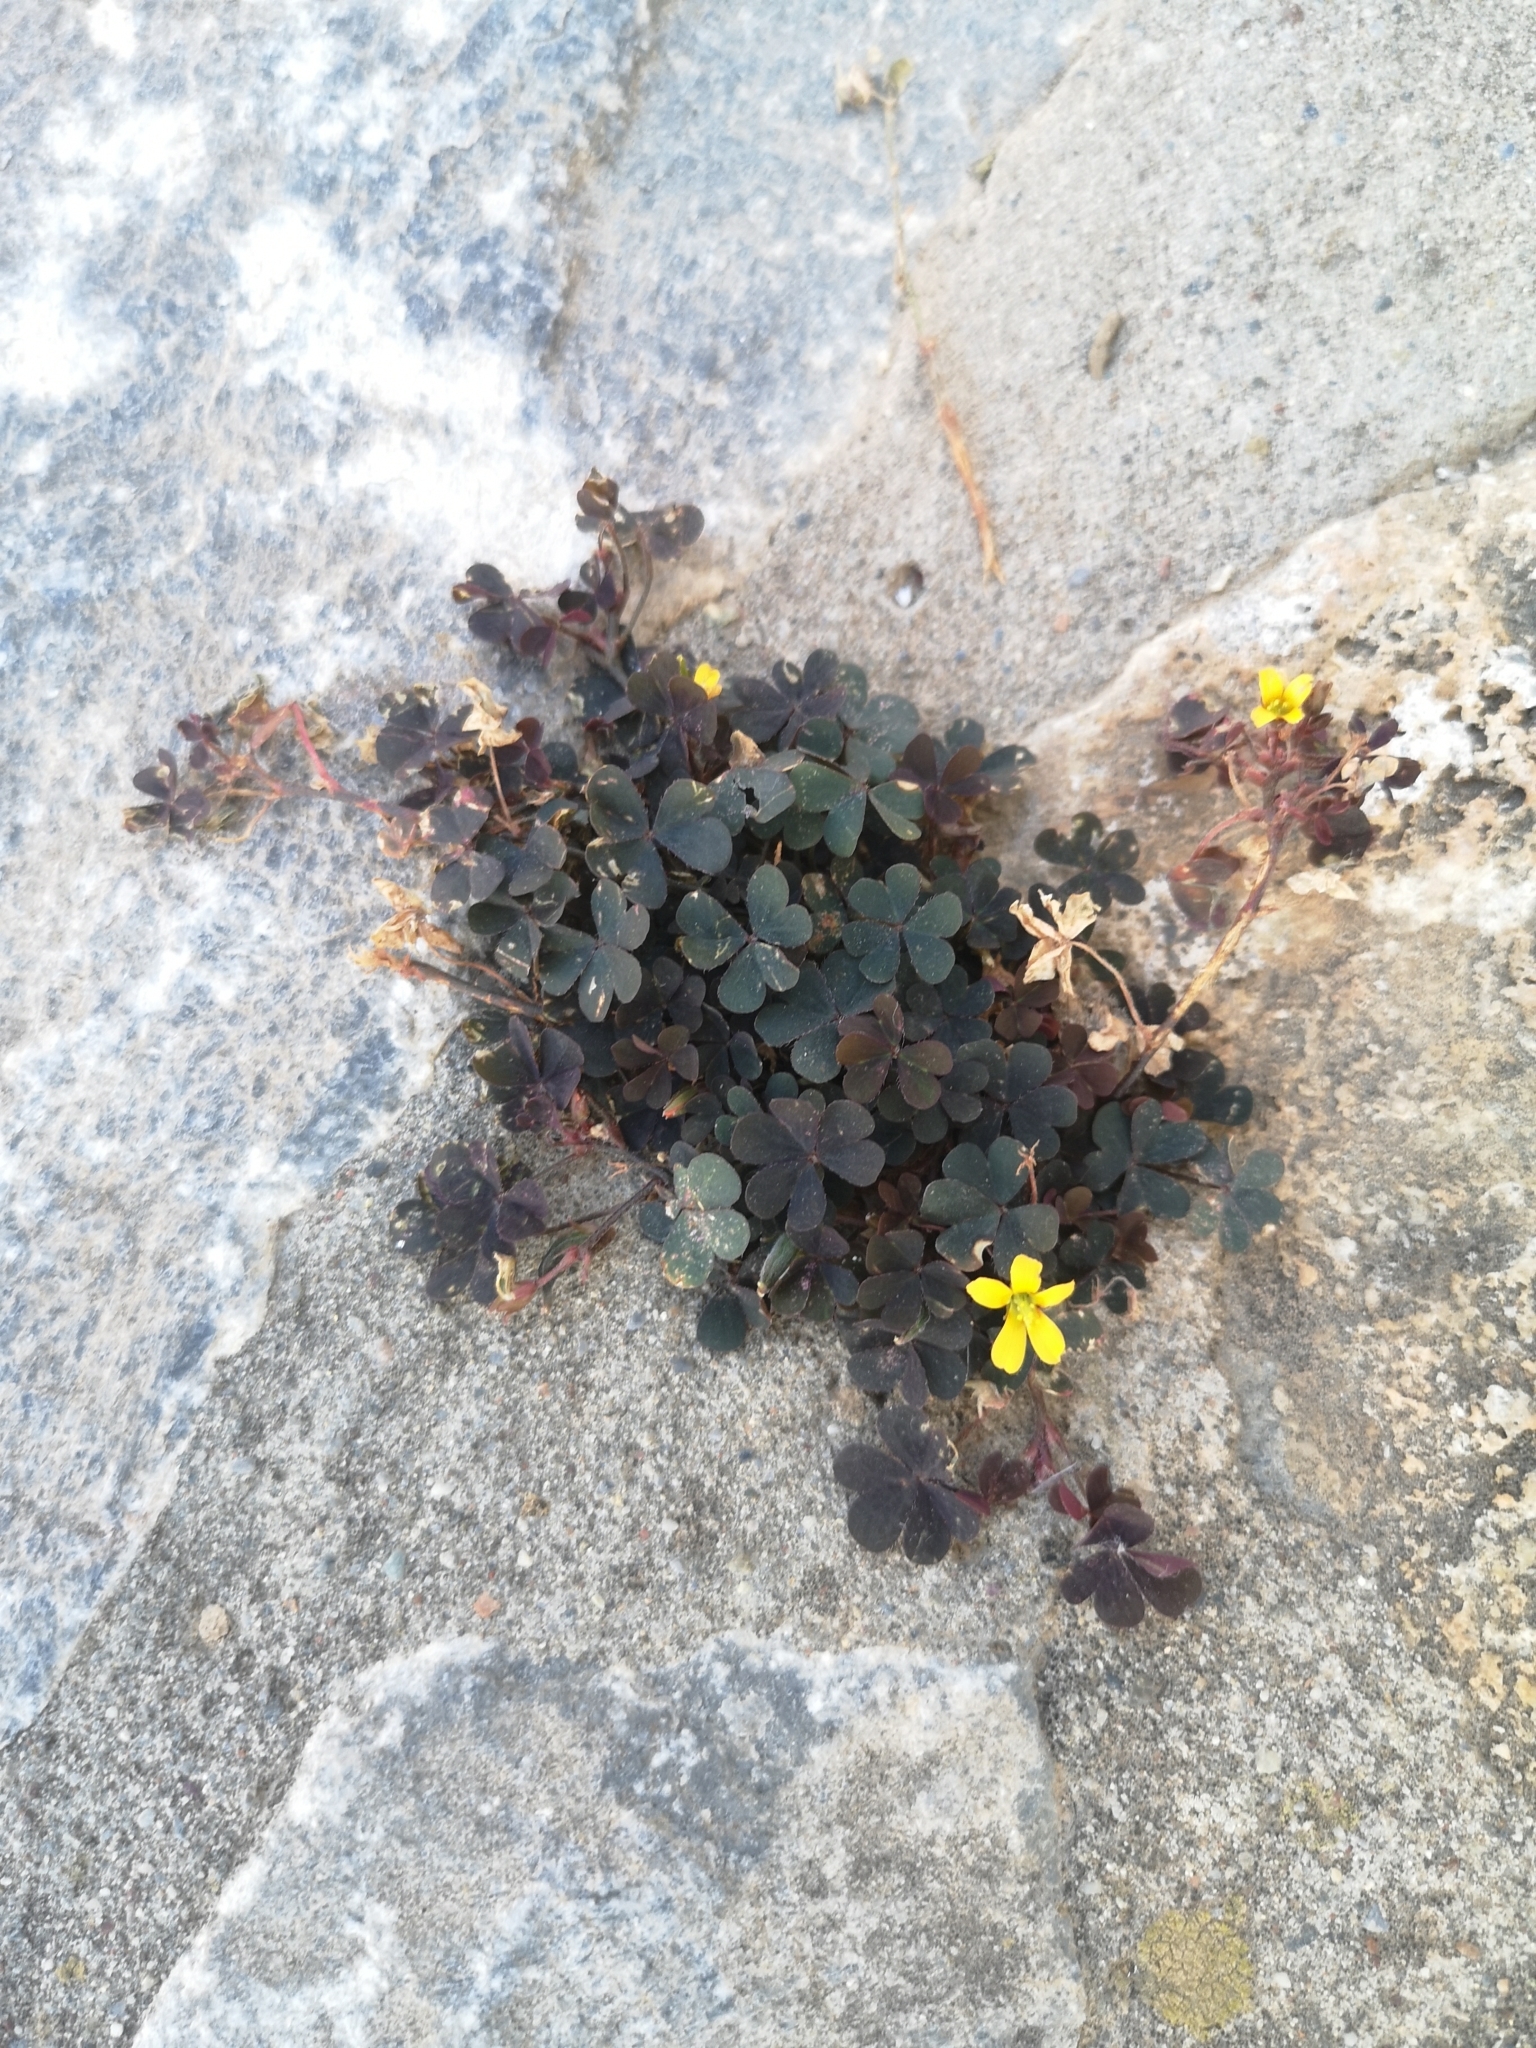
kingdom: Plantae
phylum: Tracheophyta
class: Magnoliopsida
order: Oxalidales
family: Oxalidaceae
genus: Oxalis
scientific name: Oxalis corniculata
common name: Procumbent yellow-sorrel
